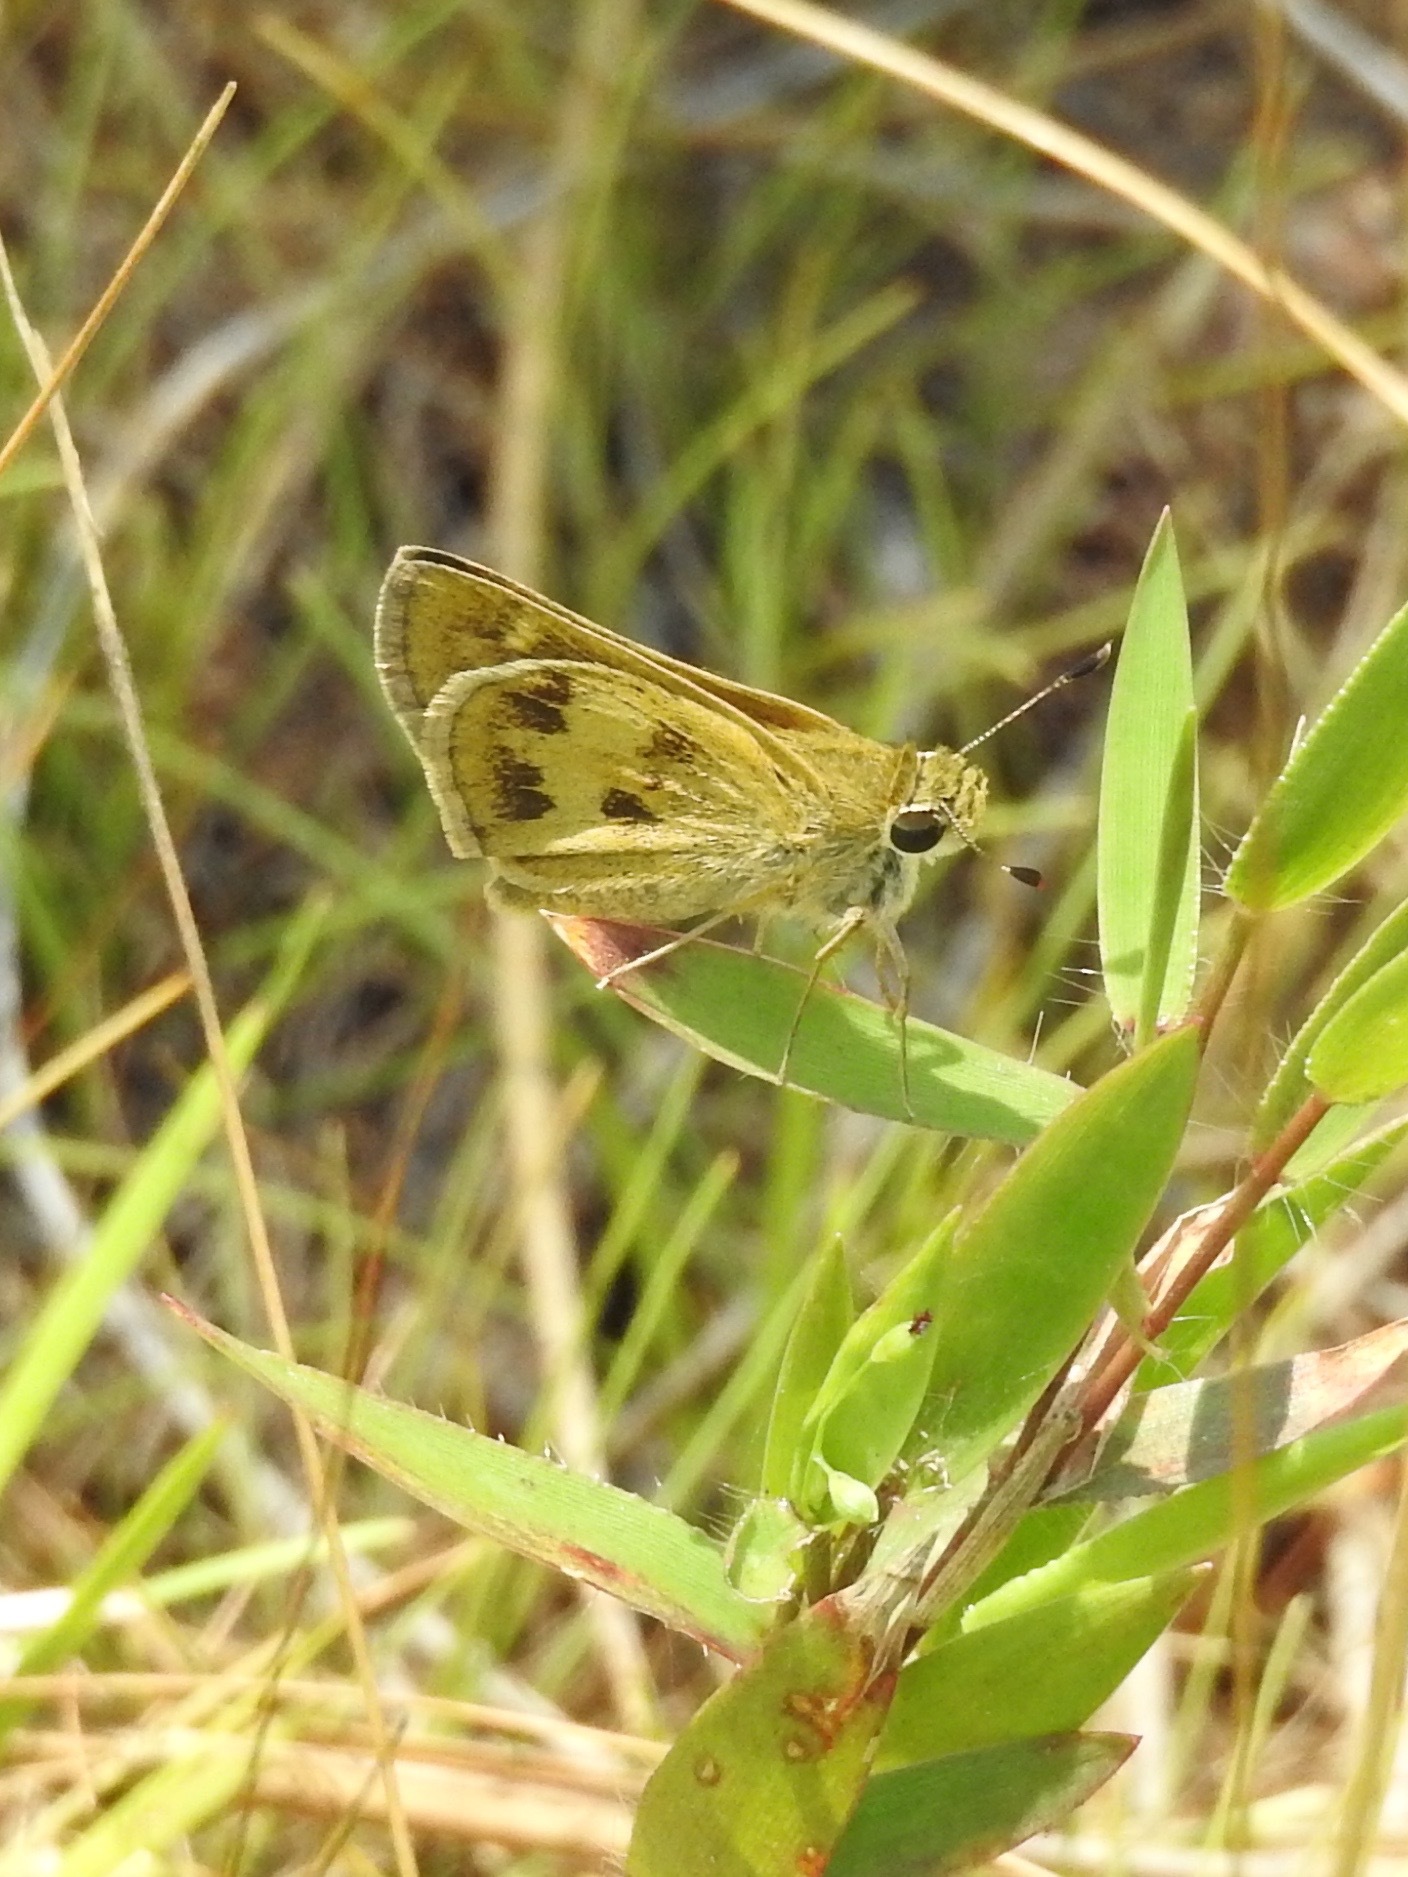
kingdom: Animalia
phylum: Arthropoda
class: Insecta
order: Lepidoptera
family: Hesperiidae
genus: Polites
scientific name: Polites vibex
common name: Whirlabout
